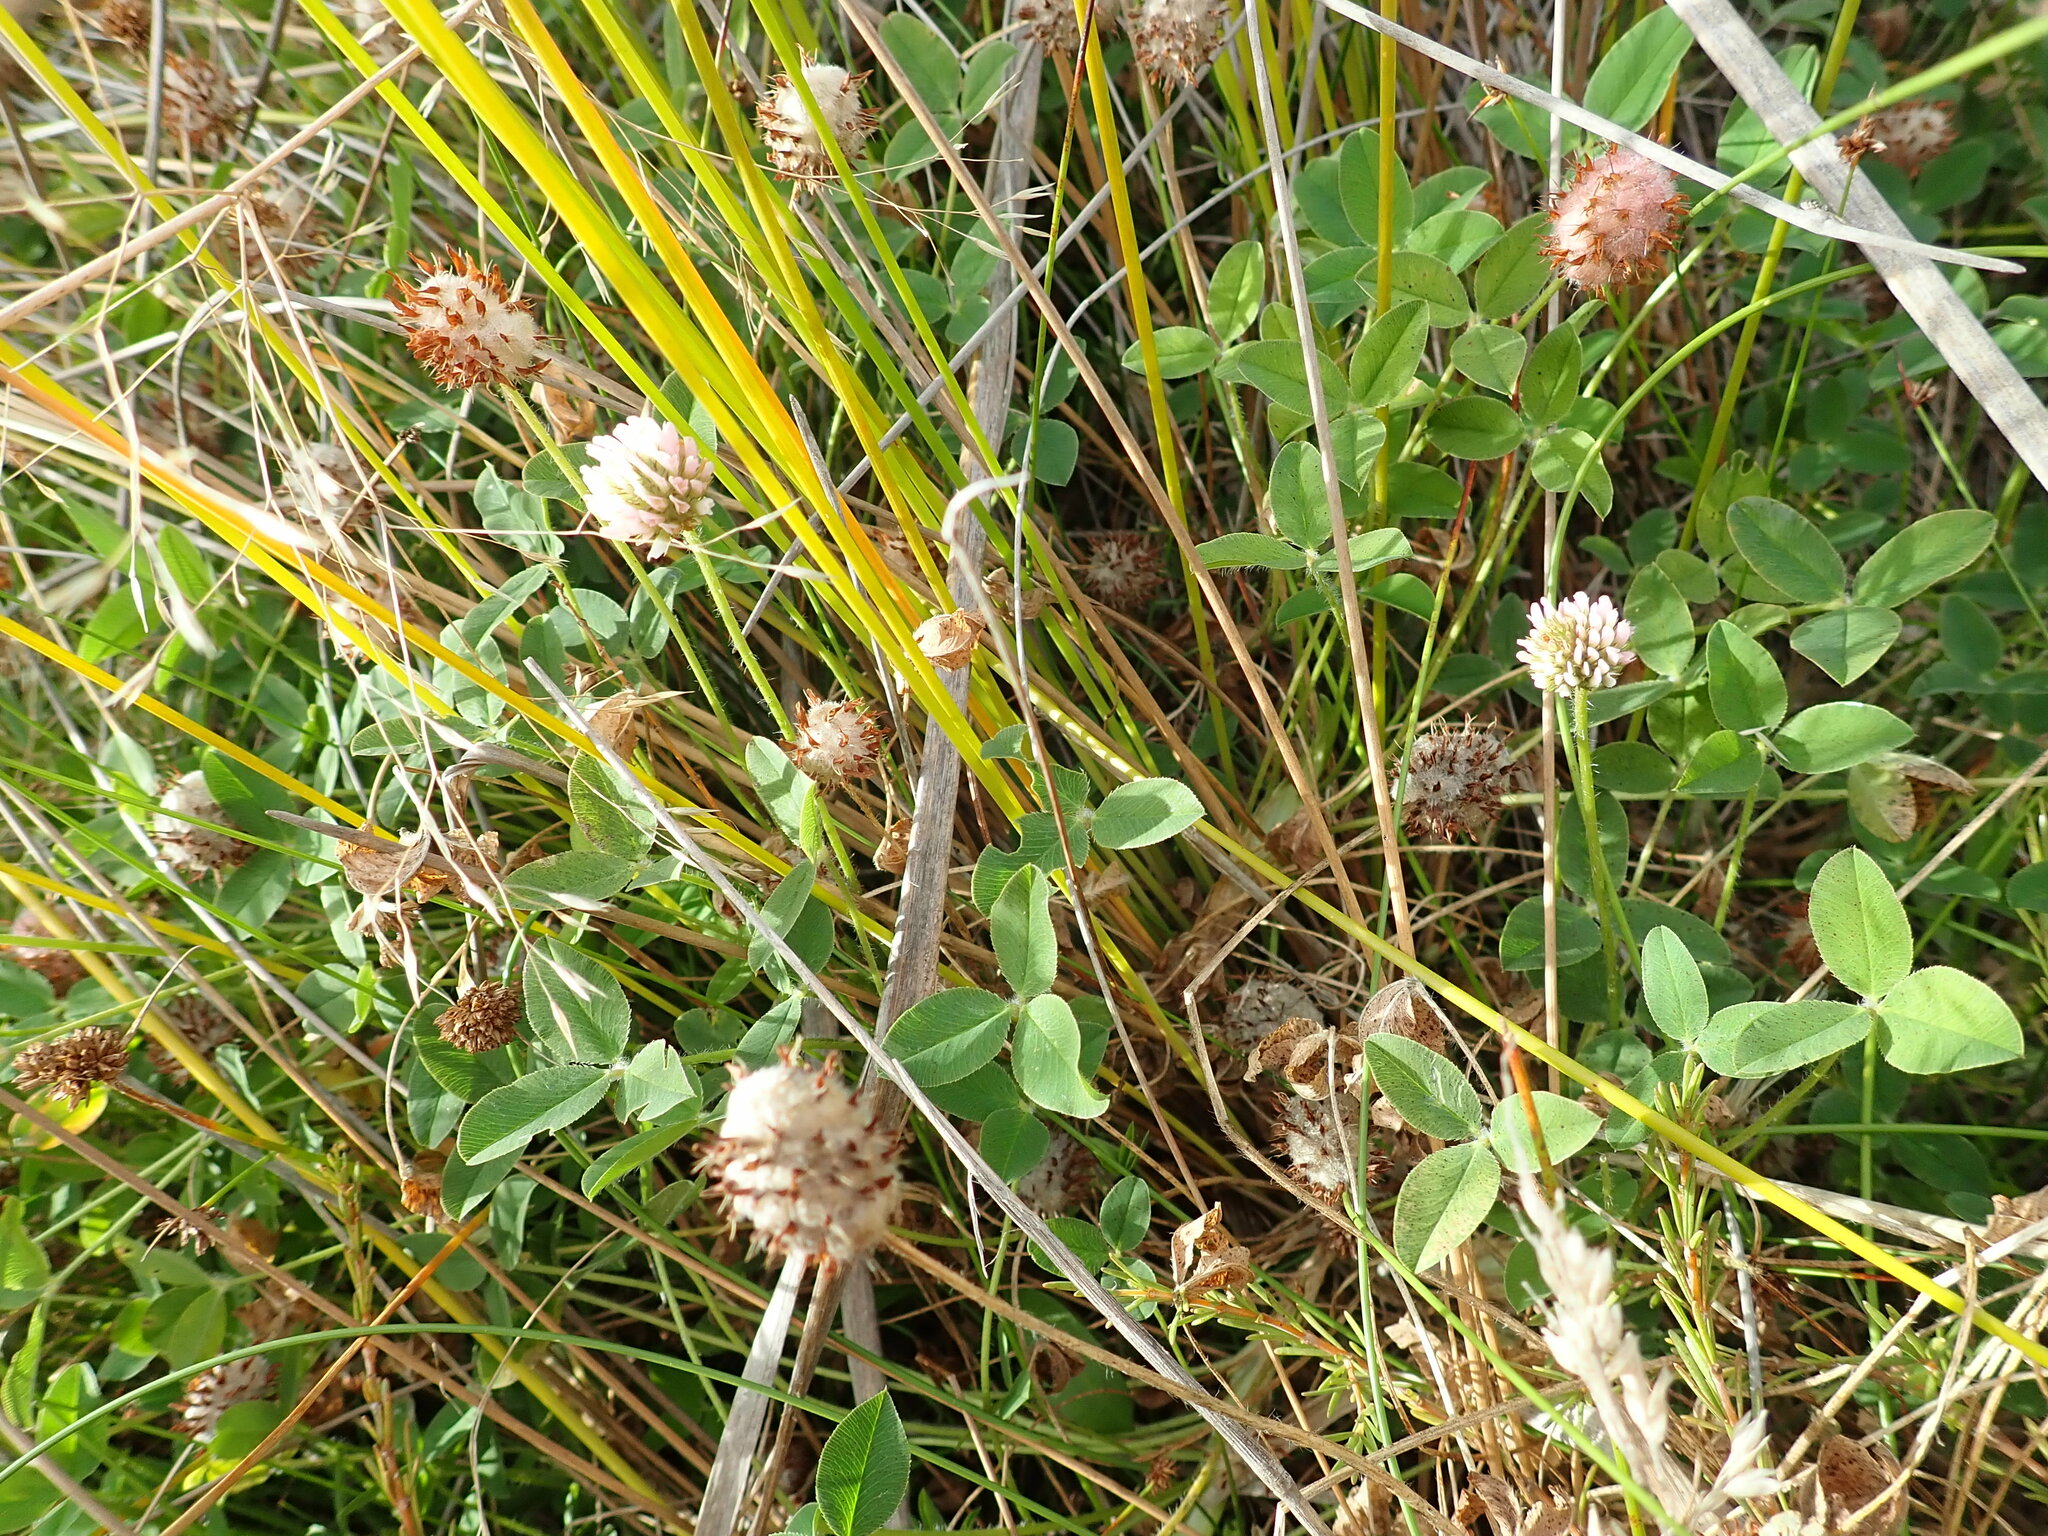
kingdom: Plantae
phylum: Tracheophyta
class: Magnoliopsida
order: Fabales
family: Fabaceae
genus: Trifolium
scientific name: Trifolium fragiferum
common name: Strawberry clover
